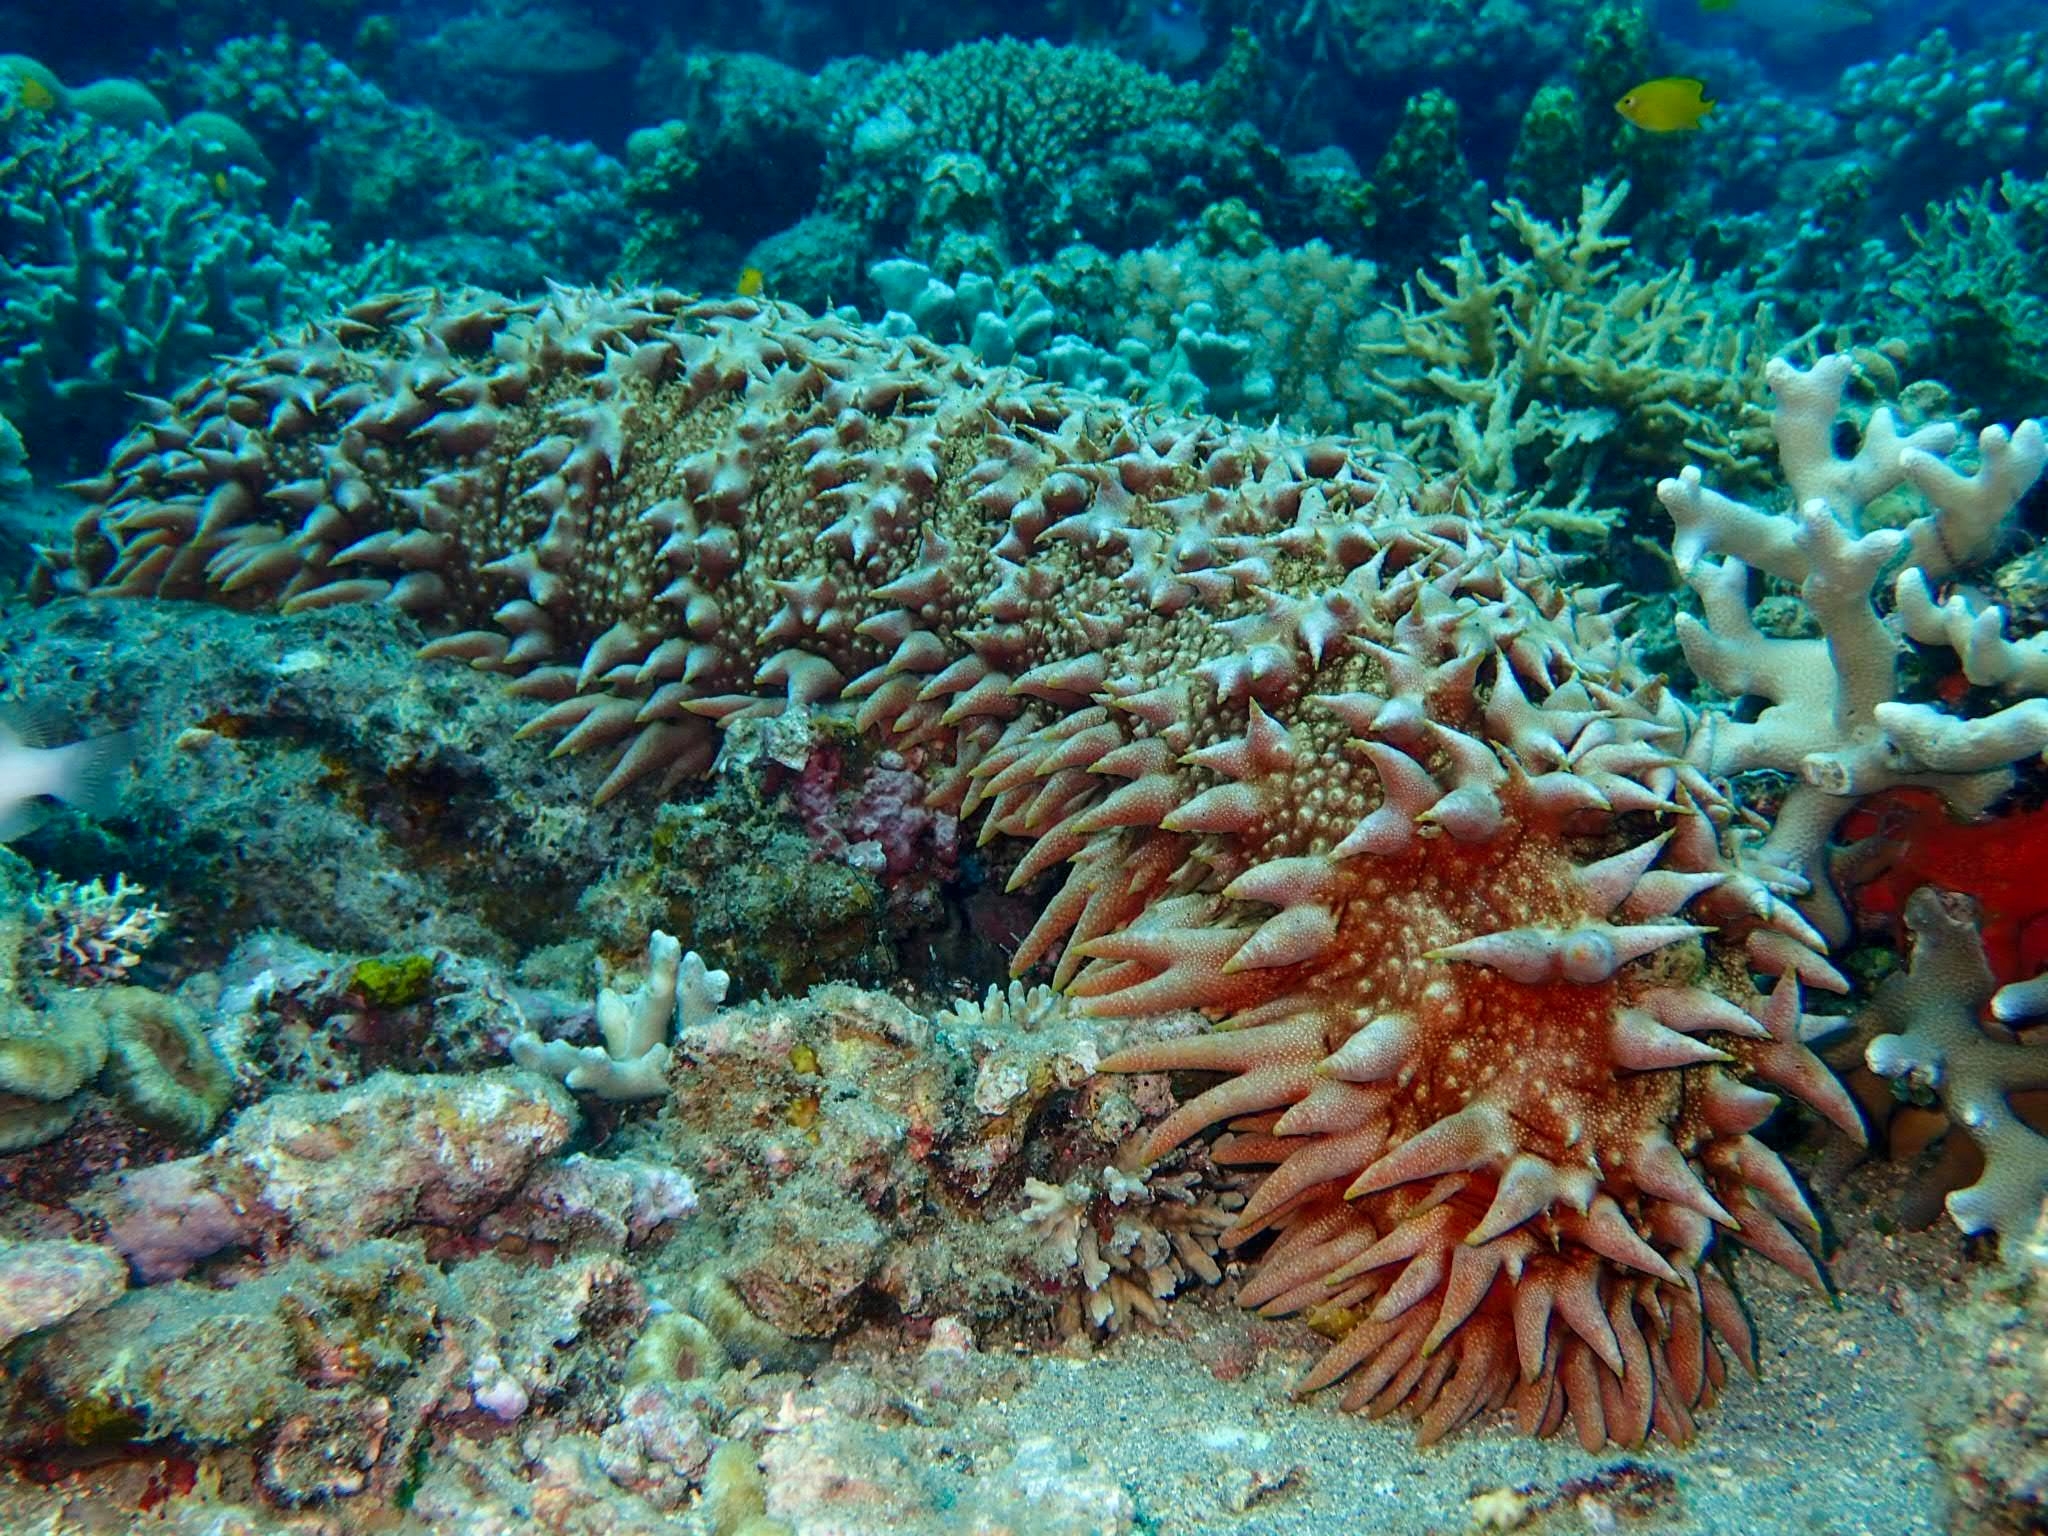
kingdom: Animalia
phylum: Echinodermata
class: Holothuroidea
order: Synallactida
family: Stichopodidae
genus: Thelenota
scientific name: Thelenota ananas
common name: Prickly redfish
